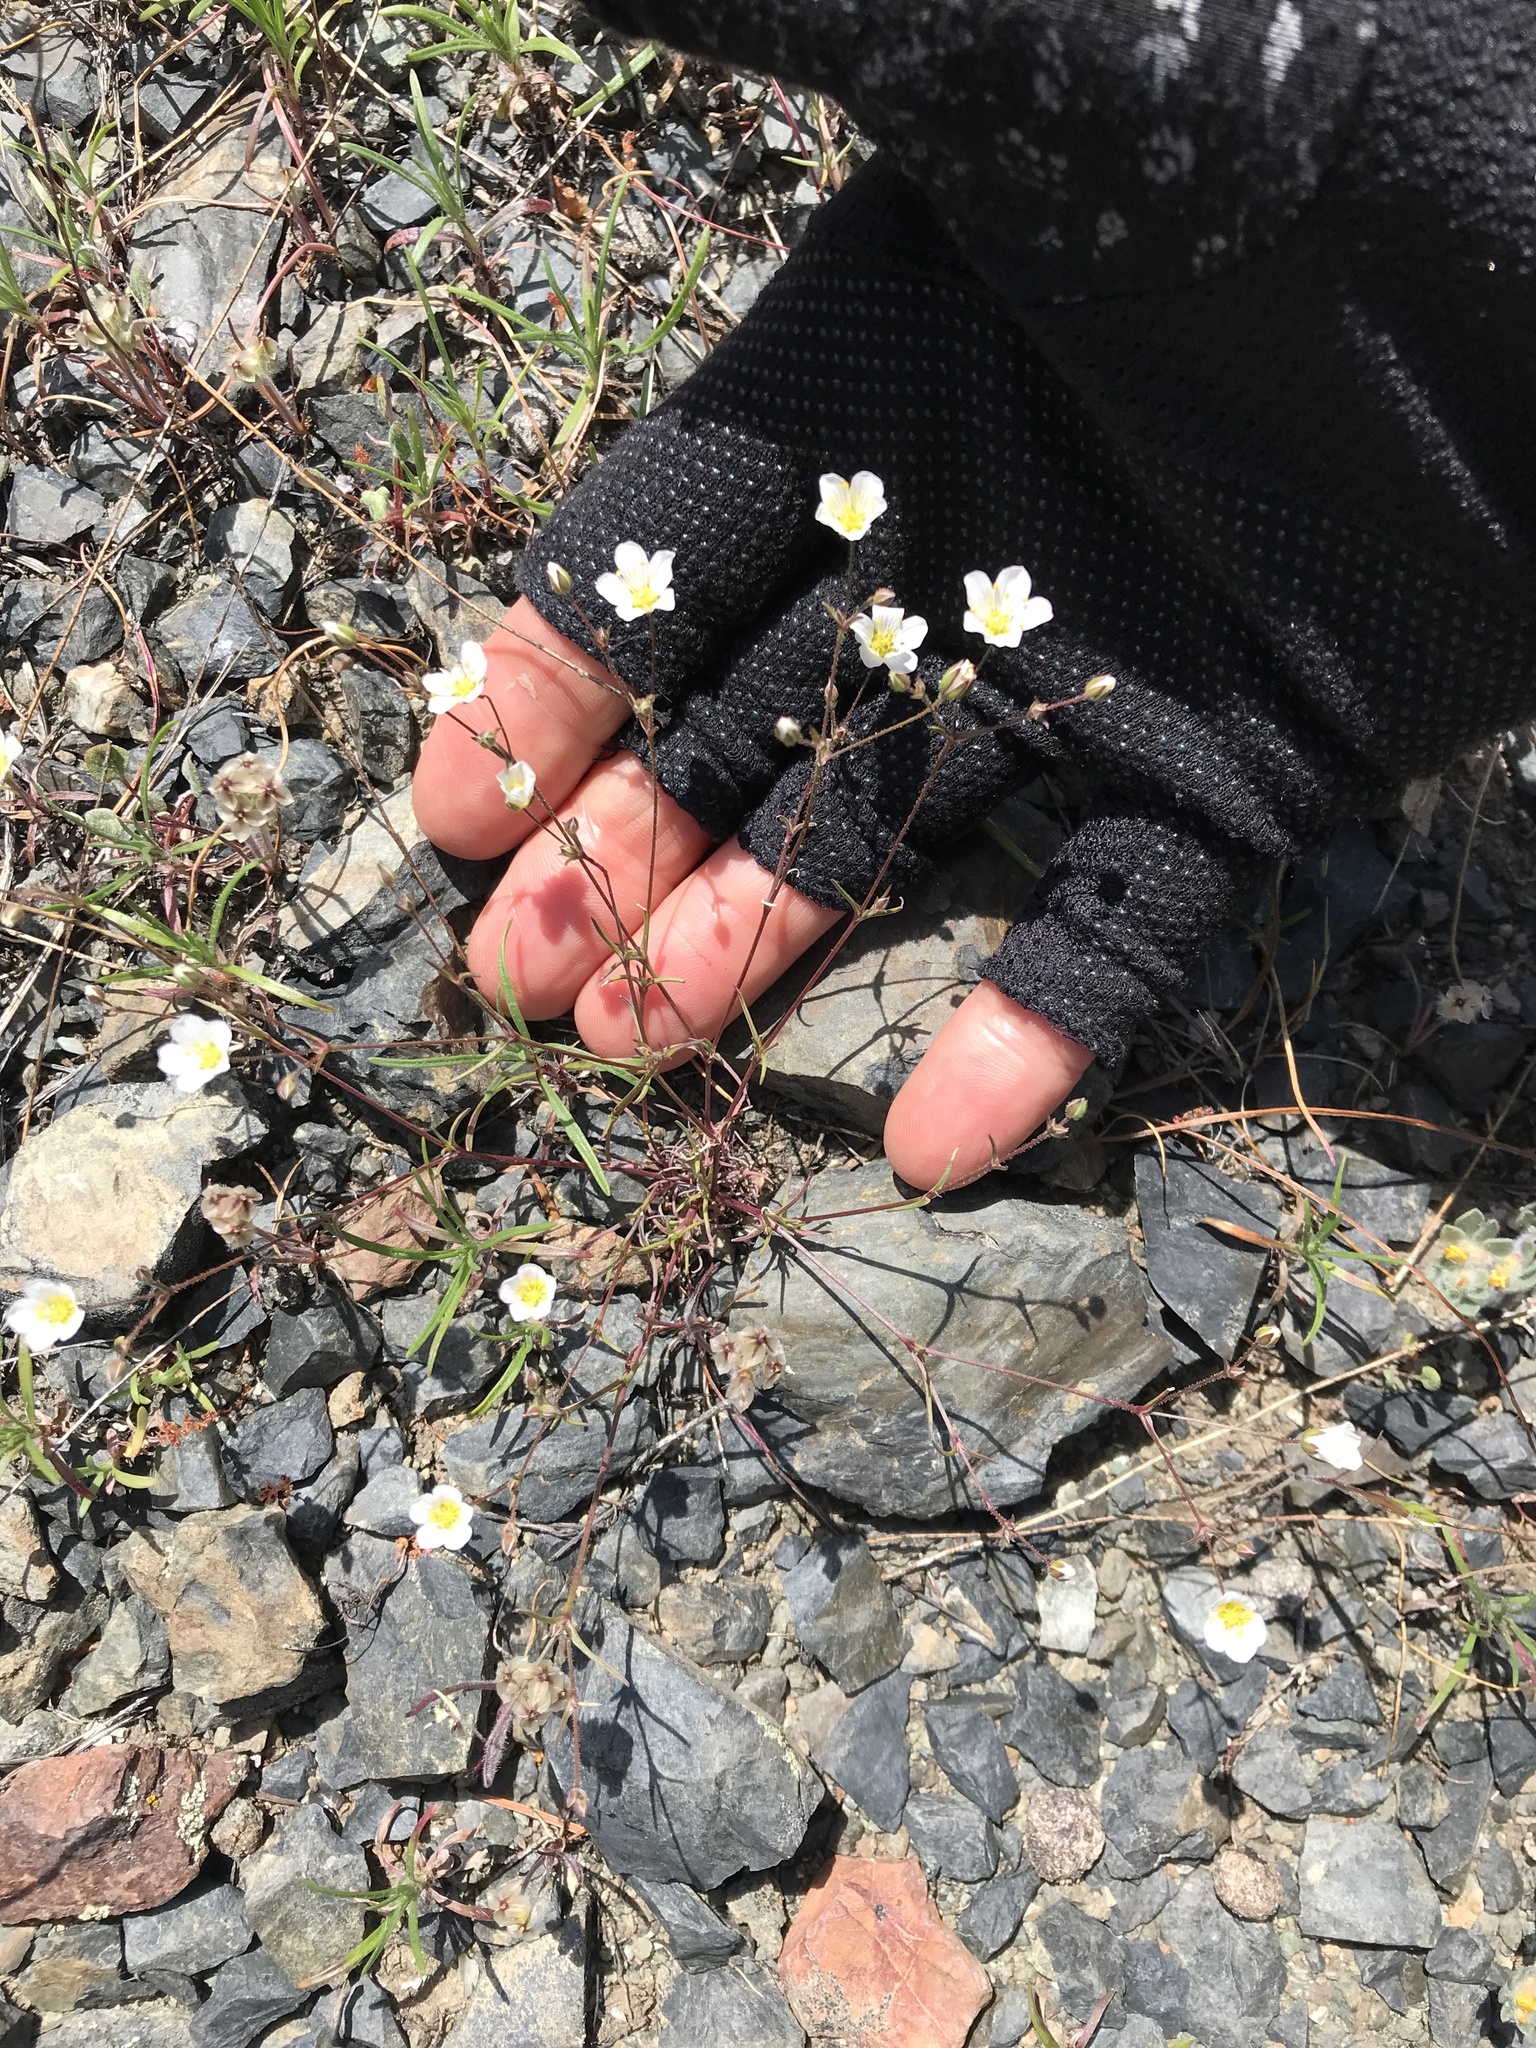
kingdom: Plantae
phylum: Tracheophyta
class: Magnoliopsida
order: Caryophyllales
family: Caryophyllaceae
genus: Sabulina
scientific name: Sabulina douglasii
